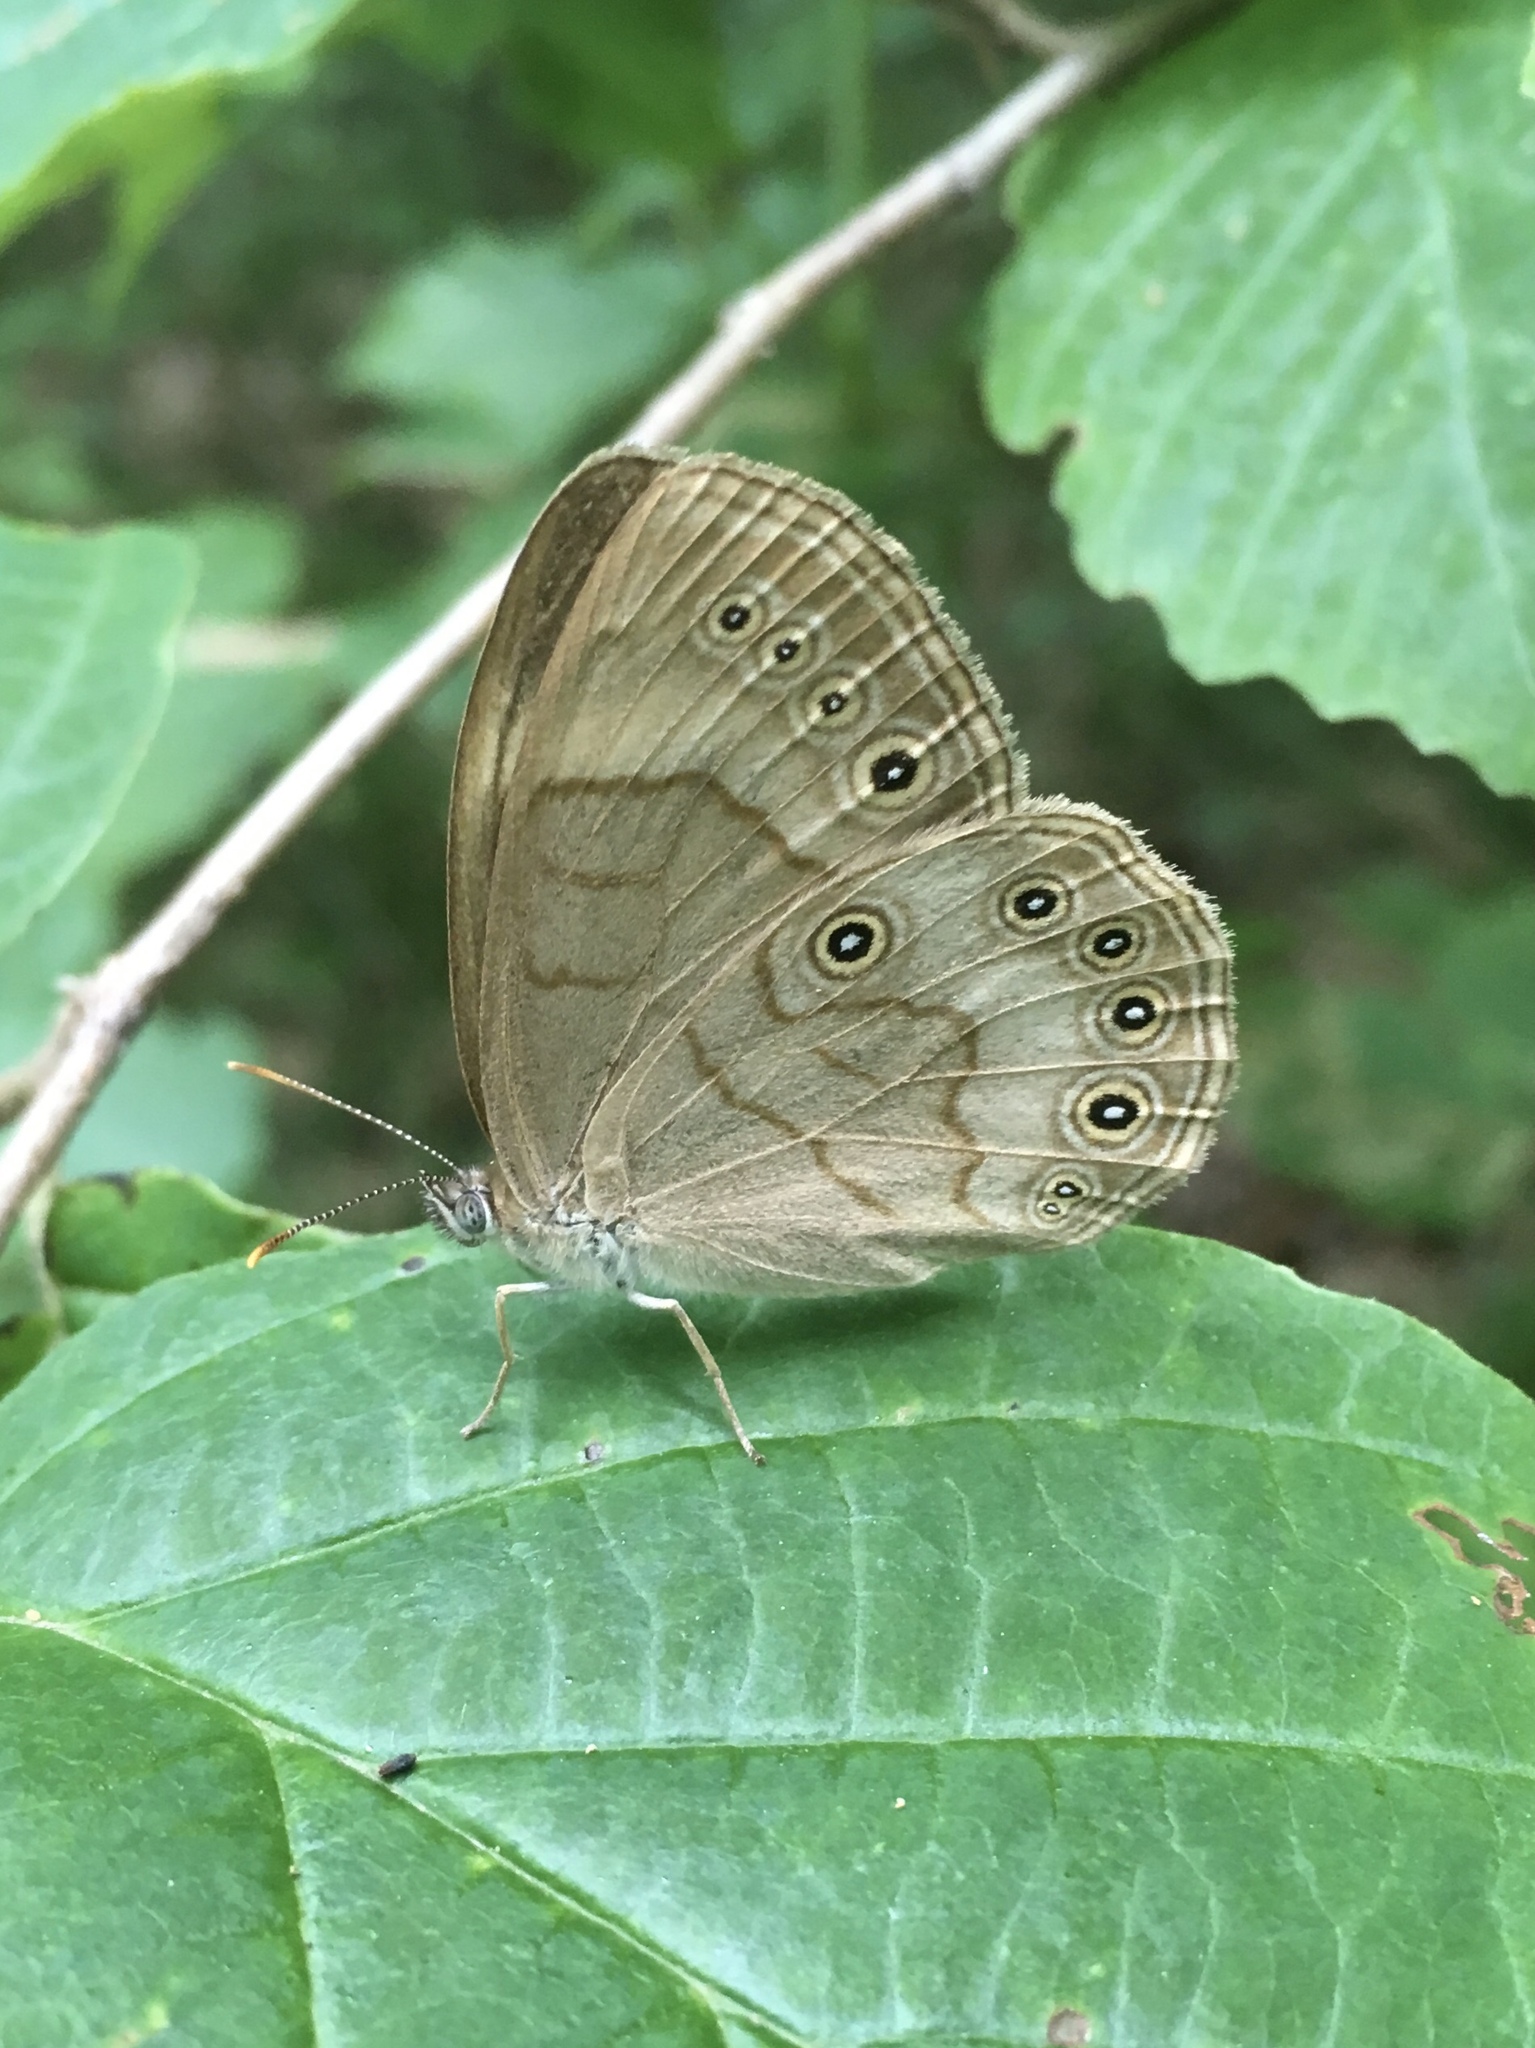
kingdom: Animalia
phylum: Arthropoda
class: Insecta
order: Lepidoptera
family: Nymphalidae
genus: Lethe
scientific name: Lethe eurydice
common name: Eyed brown
